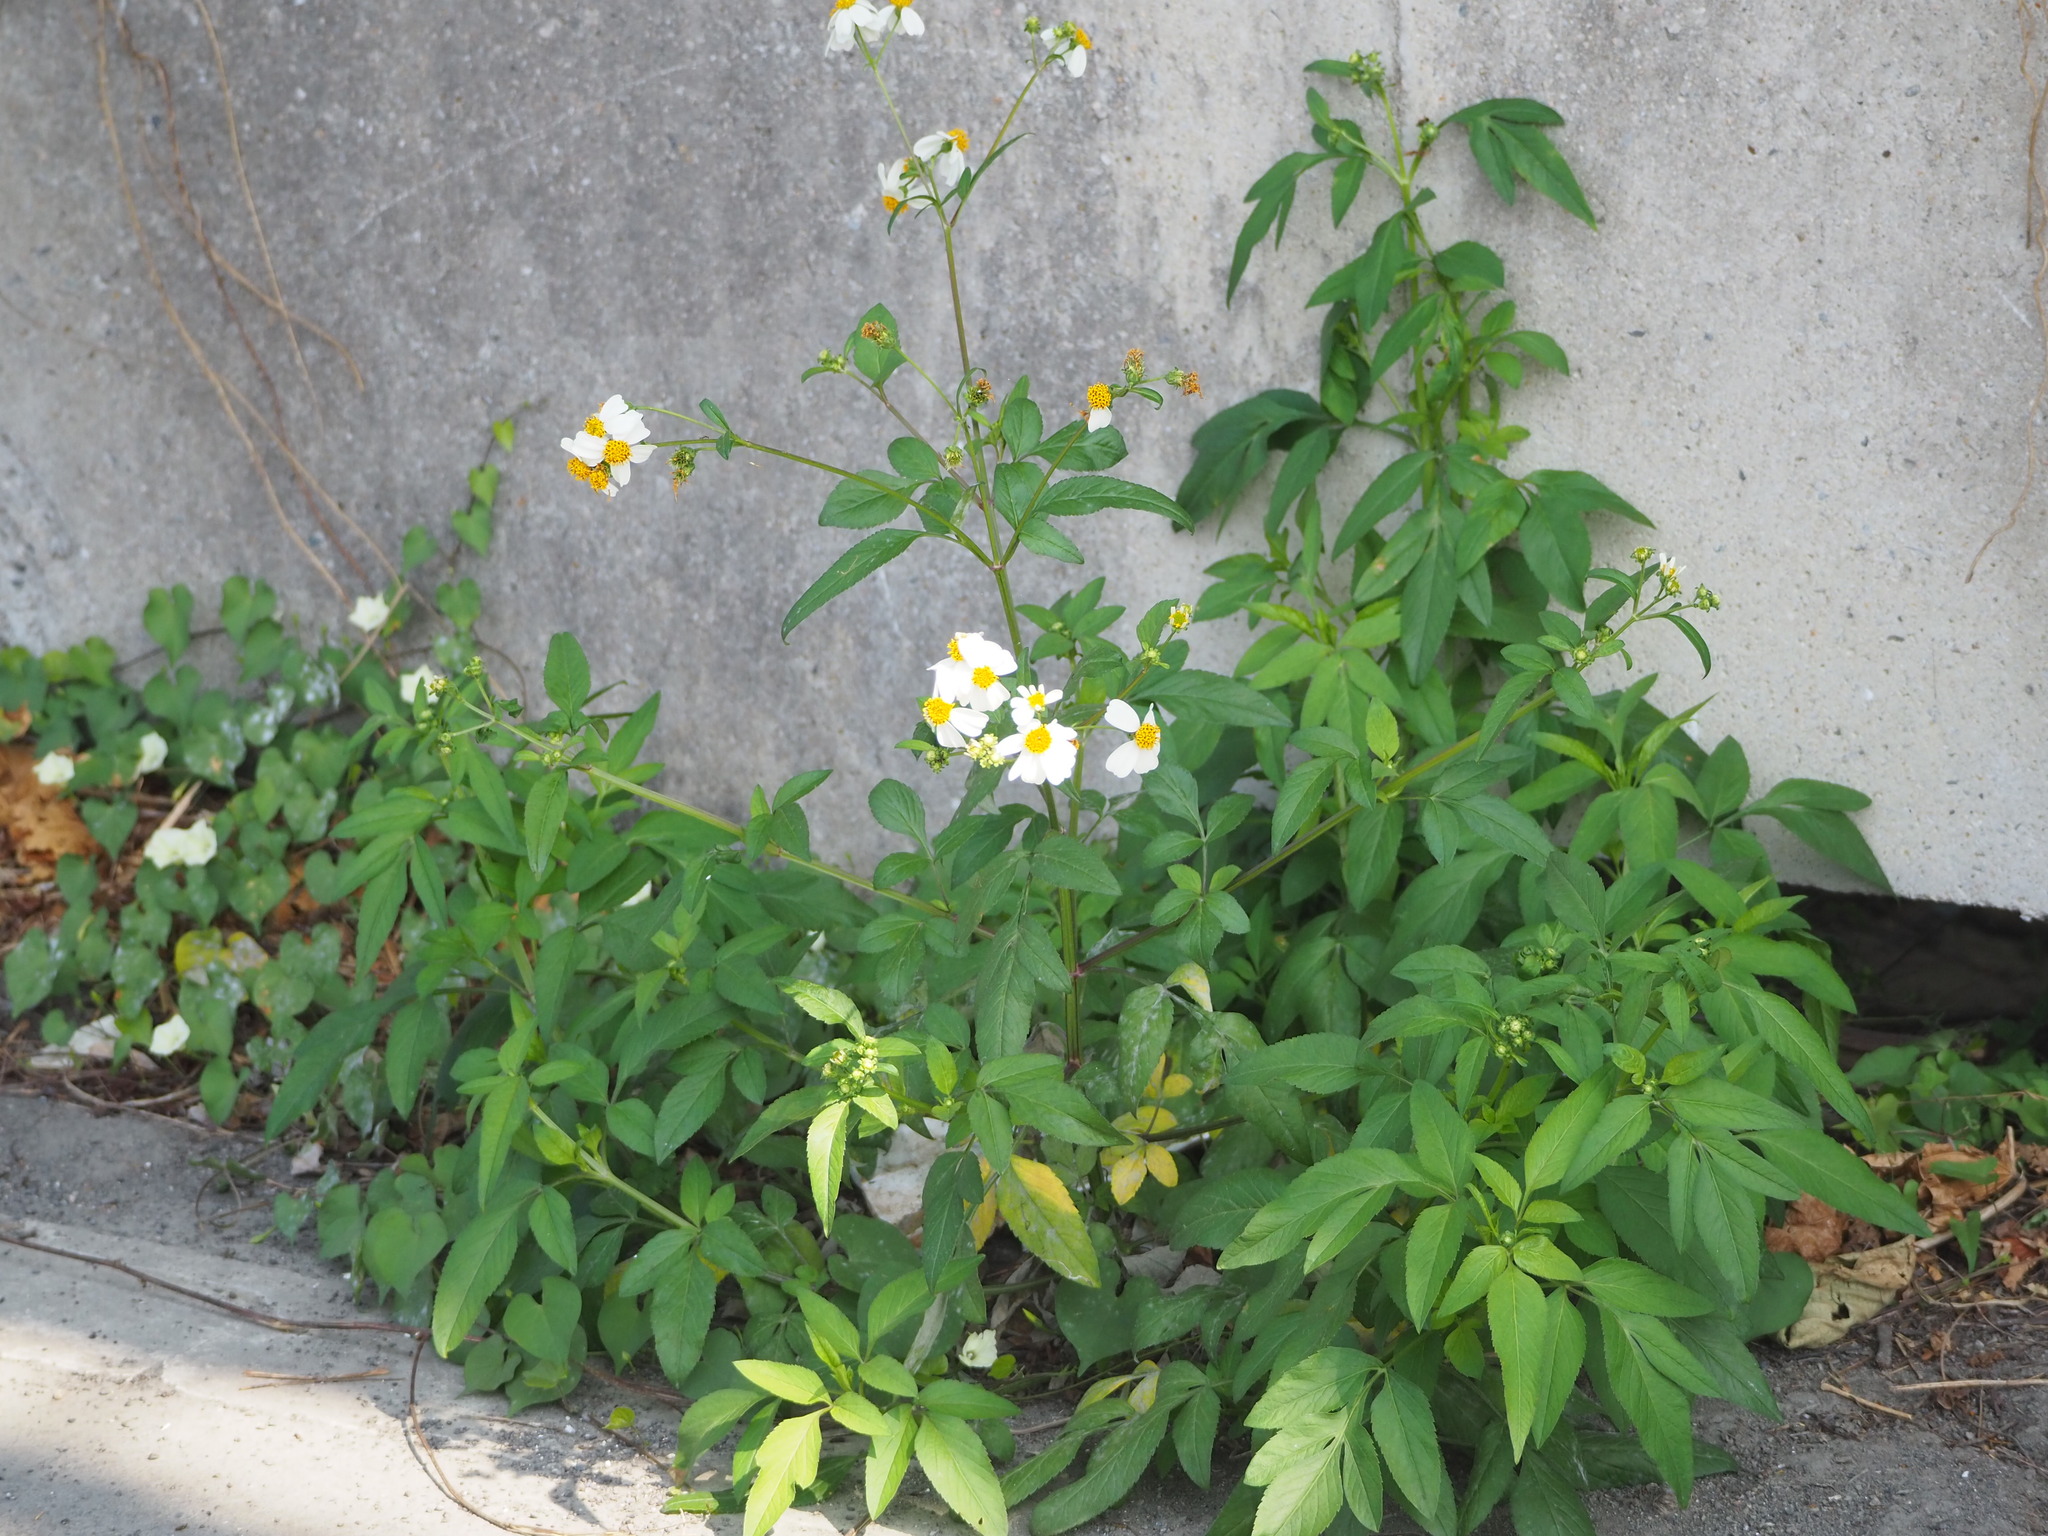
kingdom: Plantae
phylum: Tracheophyta
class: Magnoliopsida
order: Asterales
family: Asteraceae
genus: Bidens
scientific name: Bidens alba
